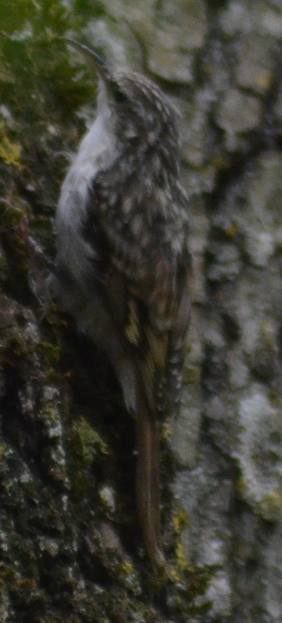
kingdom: Animalia
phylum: Chordata
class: Aves
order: Passeriformes
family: Certhiidae
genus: Certhia
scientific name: Certhia brachydactyla
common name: Short-toed treecreeper
